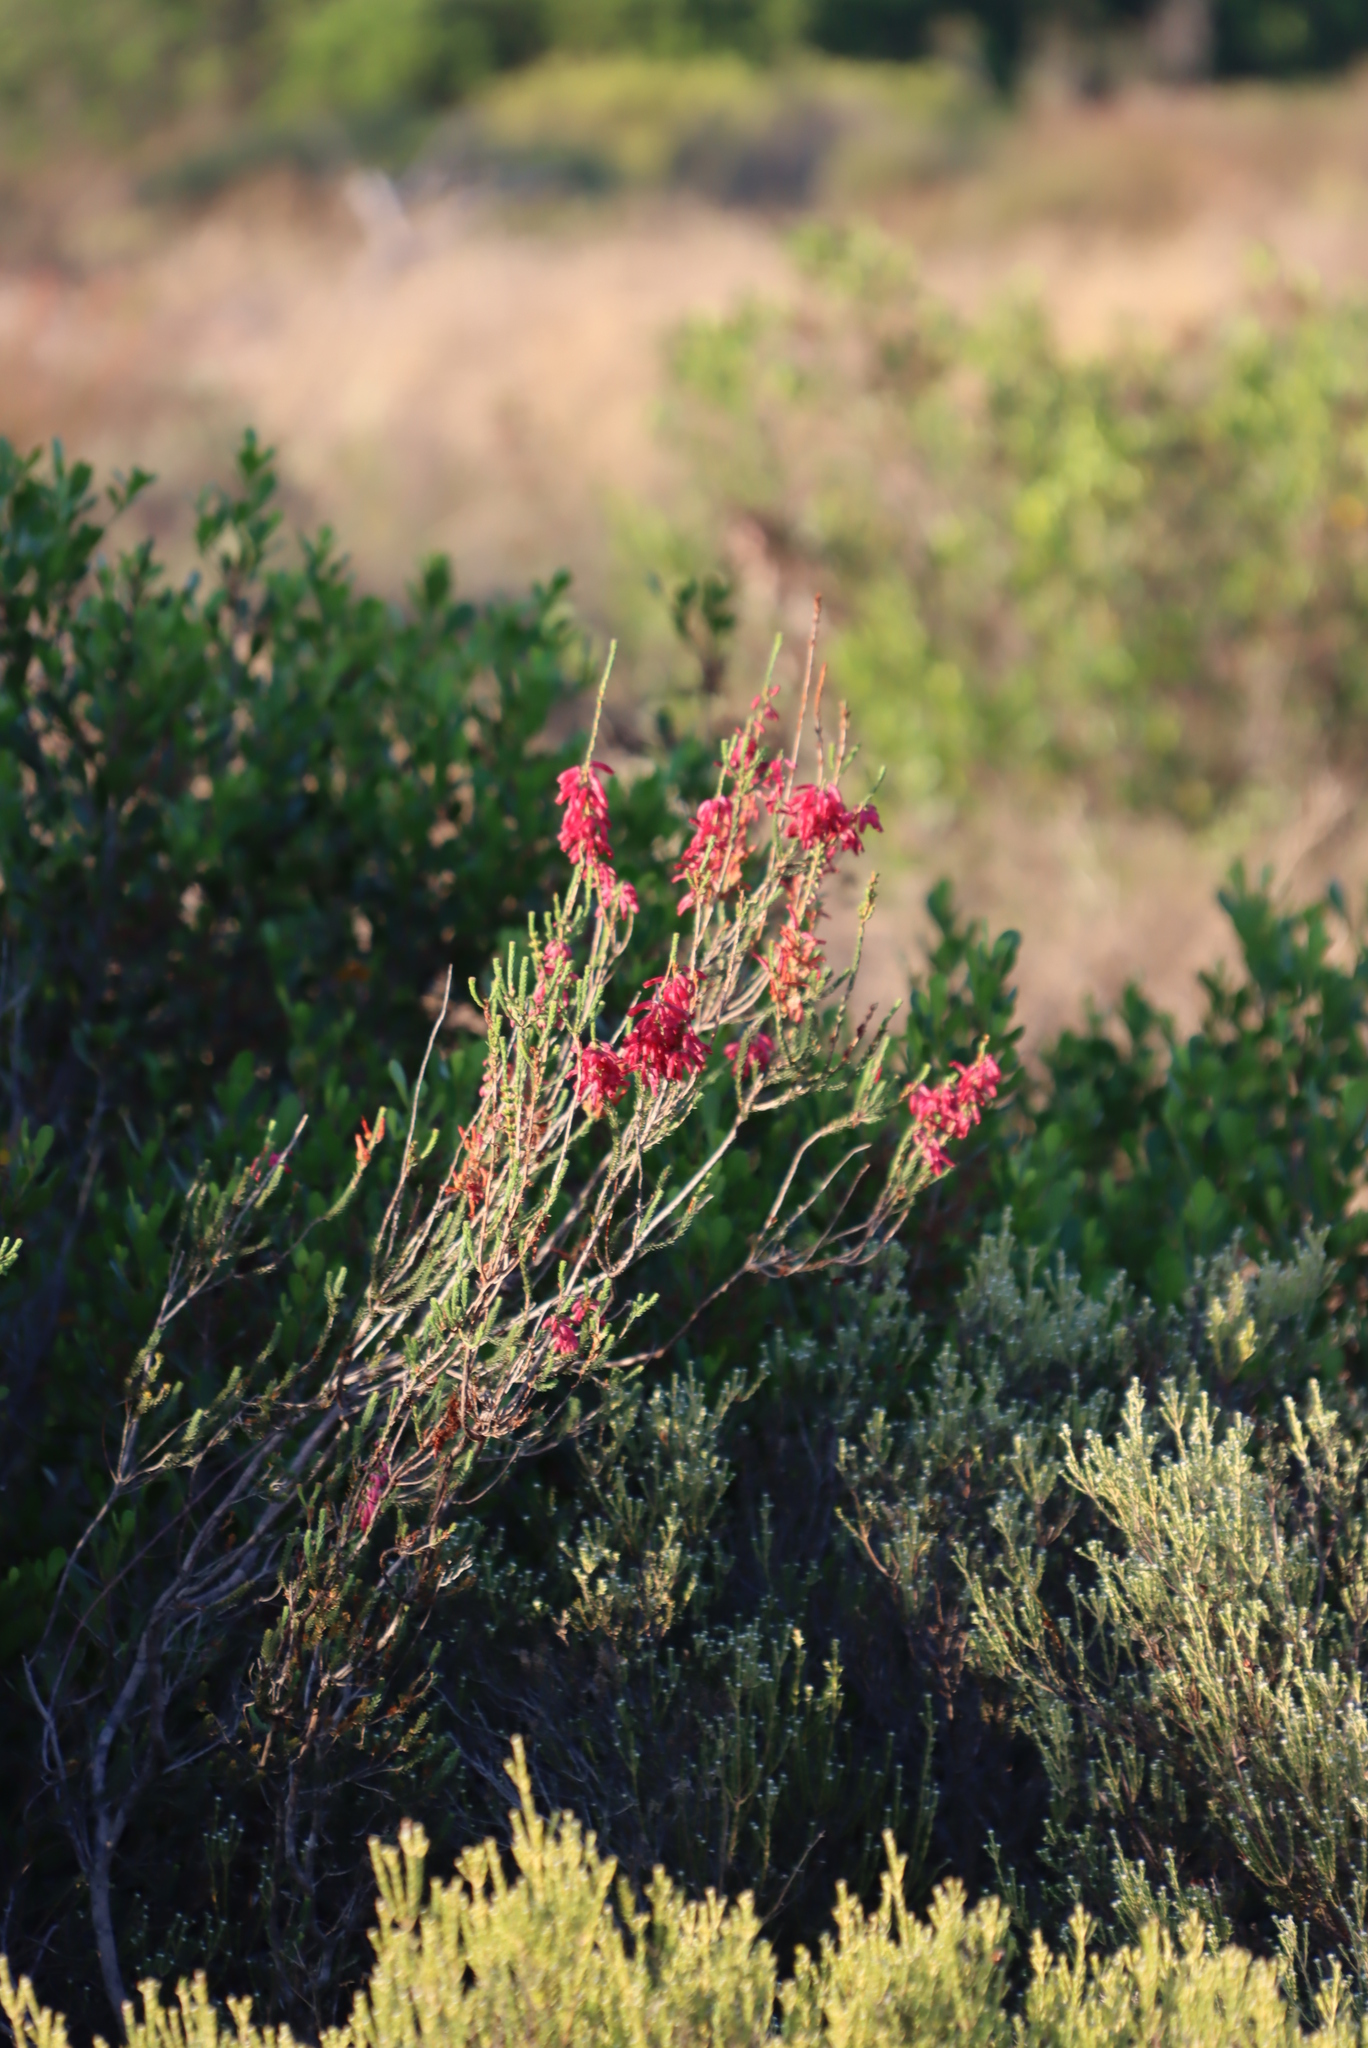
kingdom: Plantae
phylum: Tracheophyta
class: Magnoliopsida
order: Ericales
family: Ericaceae
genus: Erica
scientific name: Erica mammosa
